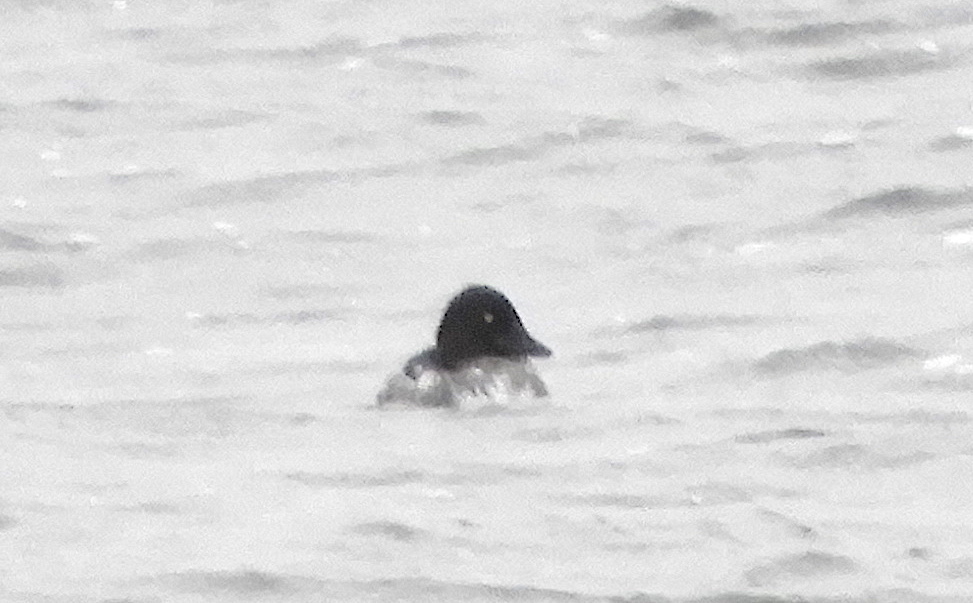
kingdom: Animalia
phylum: Chordata
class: Aves
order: Anseriformes
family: Anatidae
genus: Bucephala
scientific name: Bucephala clangula
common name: Common goldeneye
